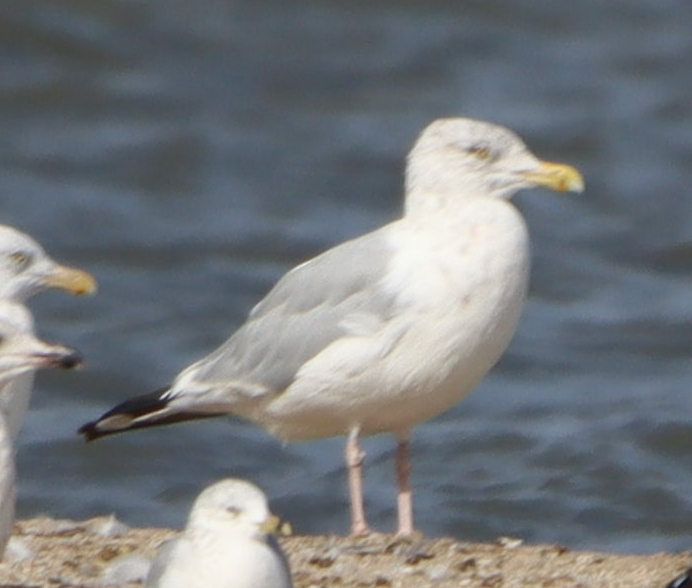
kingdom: Animalia
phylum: Chordata
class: Aves
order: Charadriiformes
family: Laridae
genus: Larus
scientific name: Larus argentatus
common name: Herring gull
